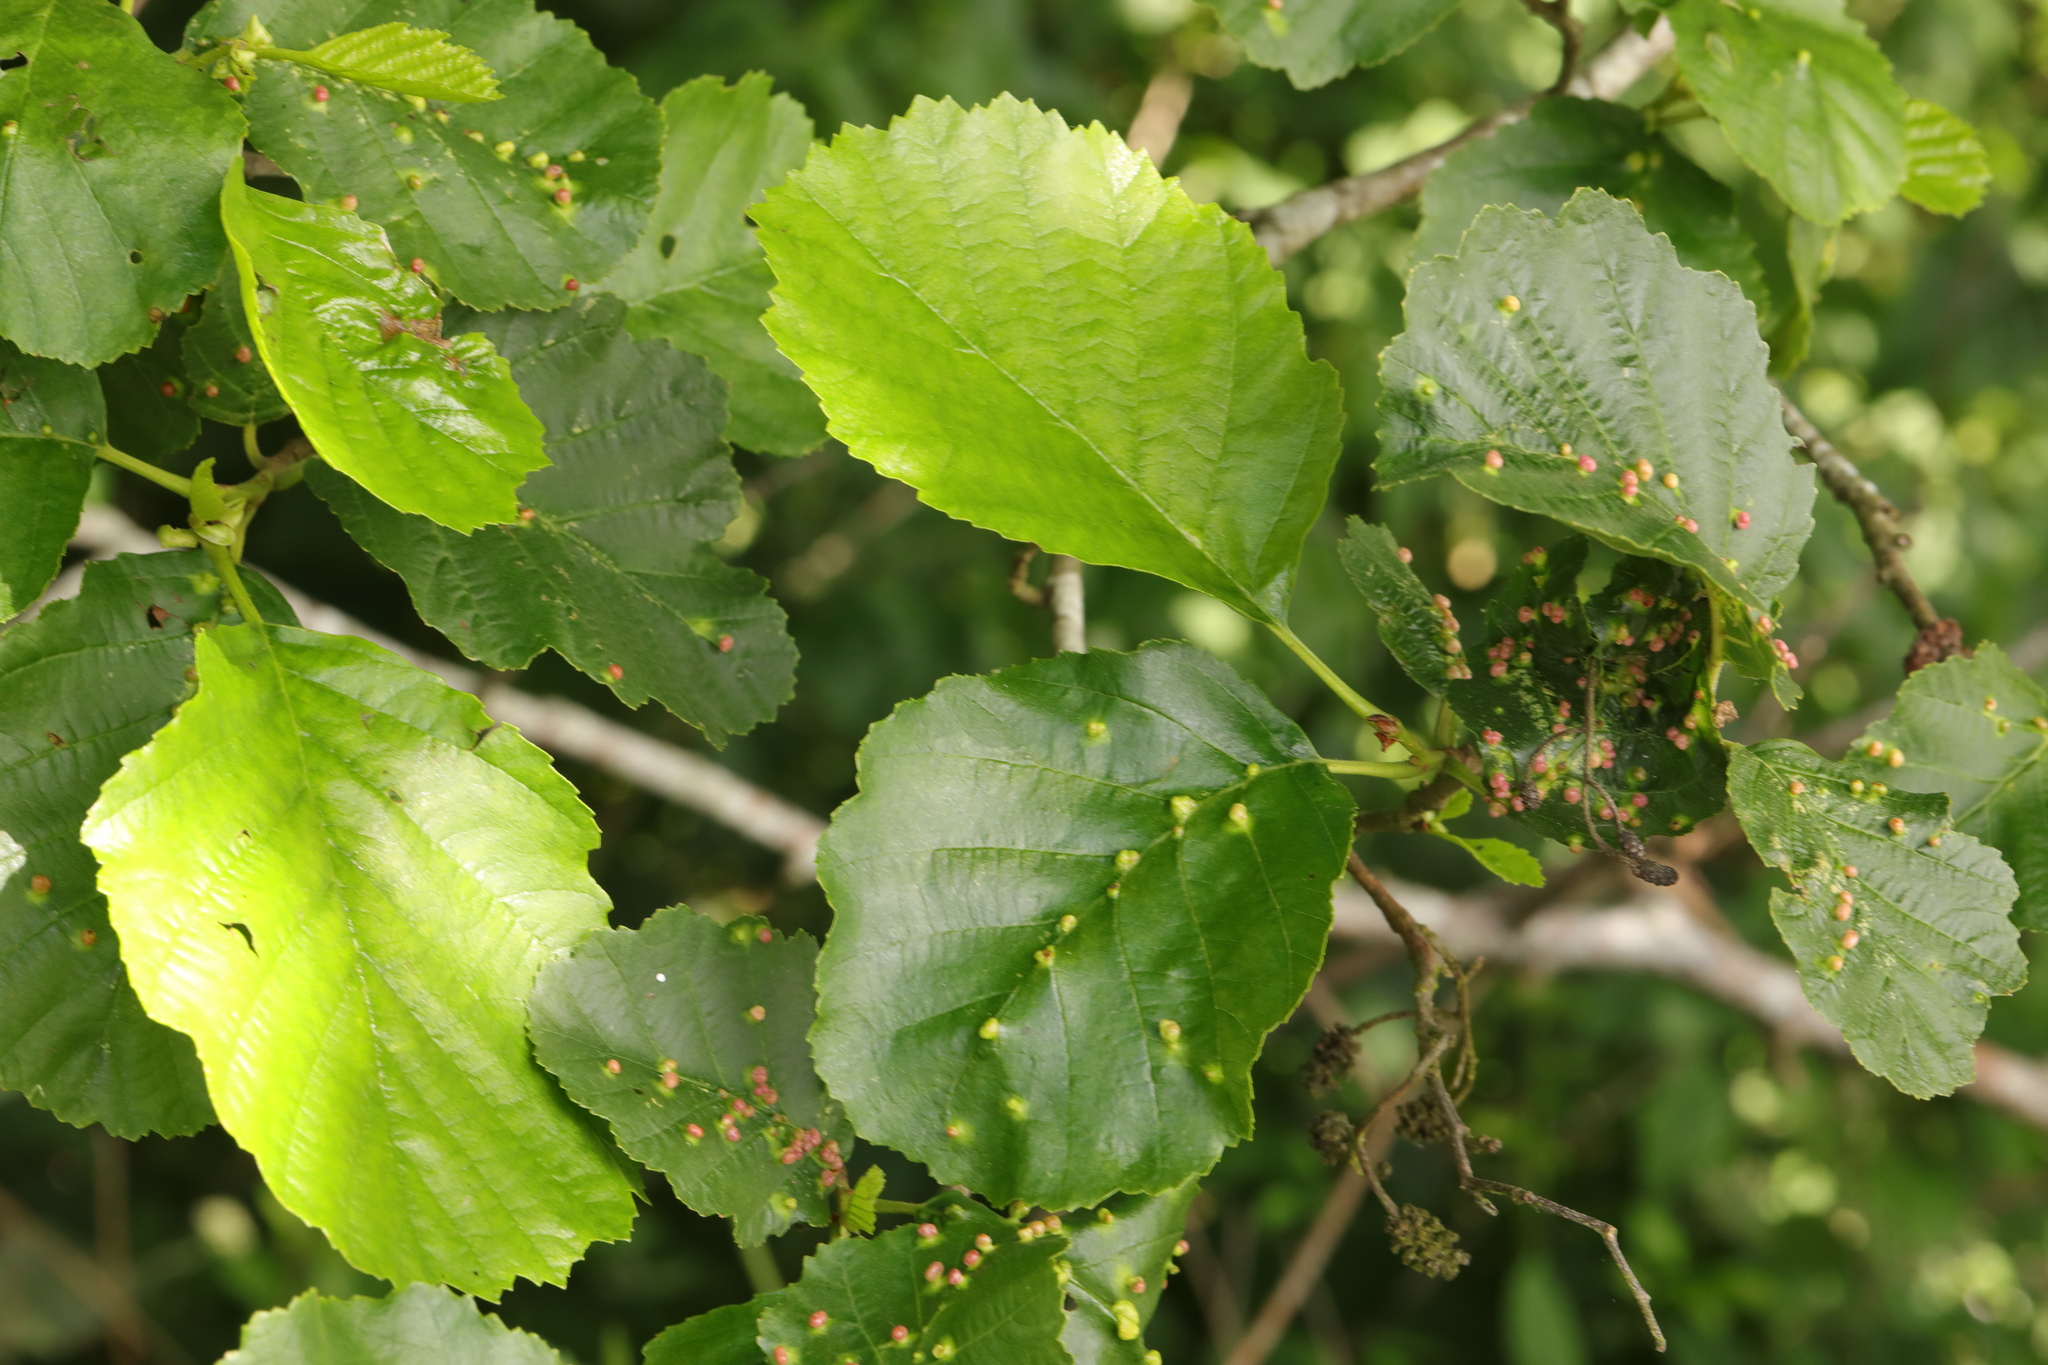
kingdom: Plantae
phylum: Tracheophyta
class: Magnoliopsida
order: Fagales
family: Betulaceae
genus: Alnus
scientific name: Alnus glutinosa
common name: Black alder
